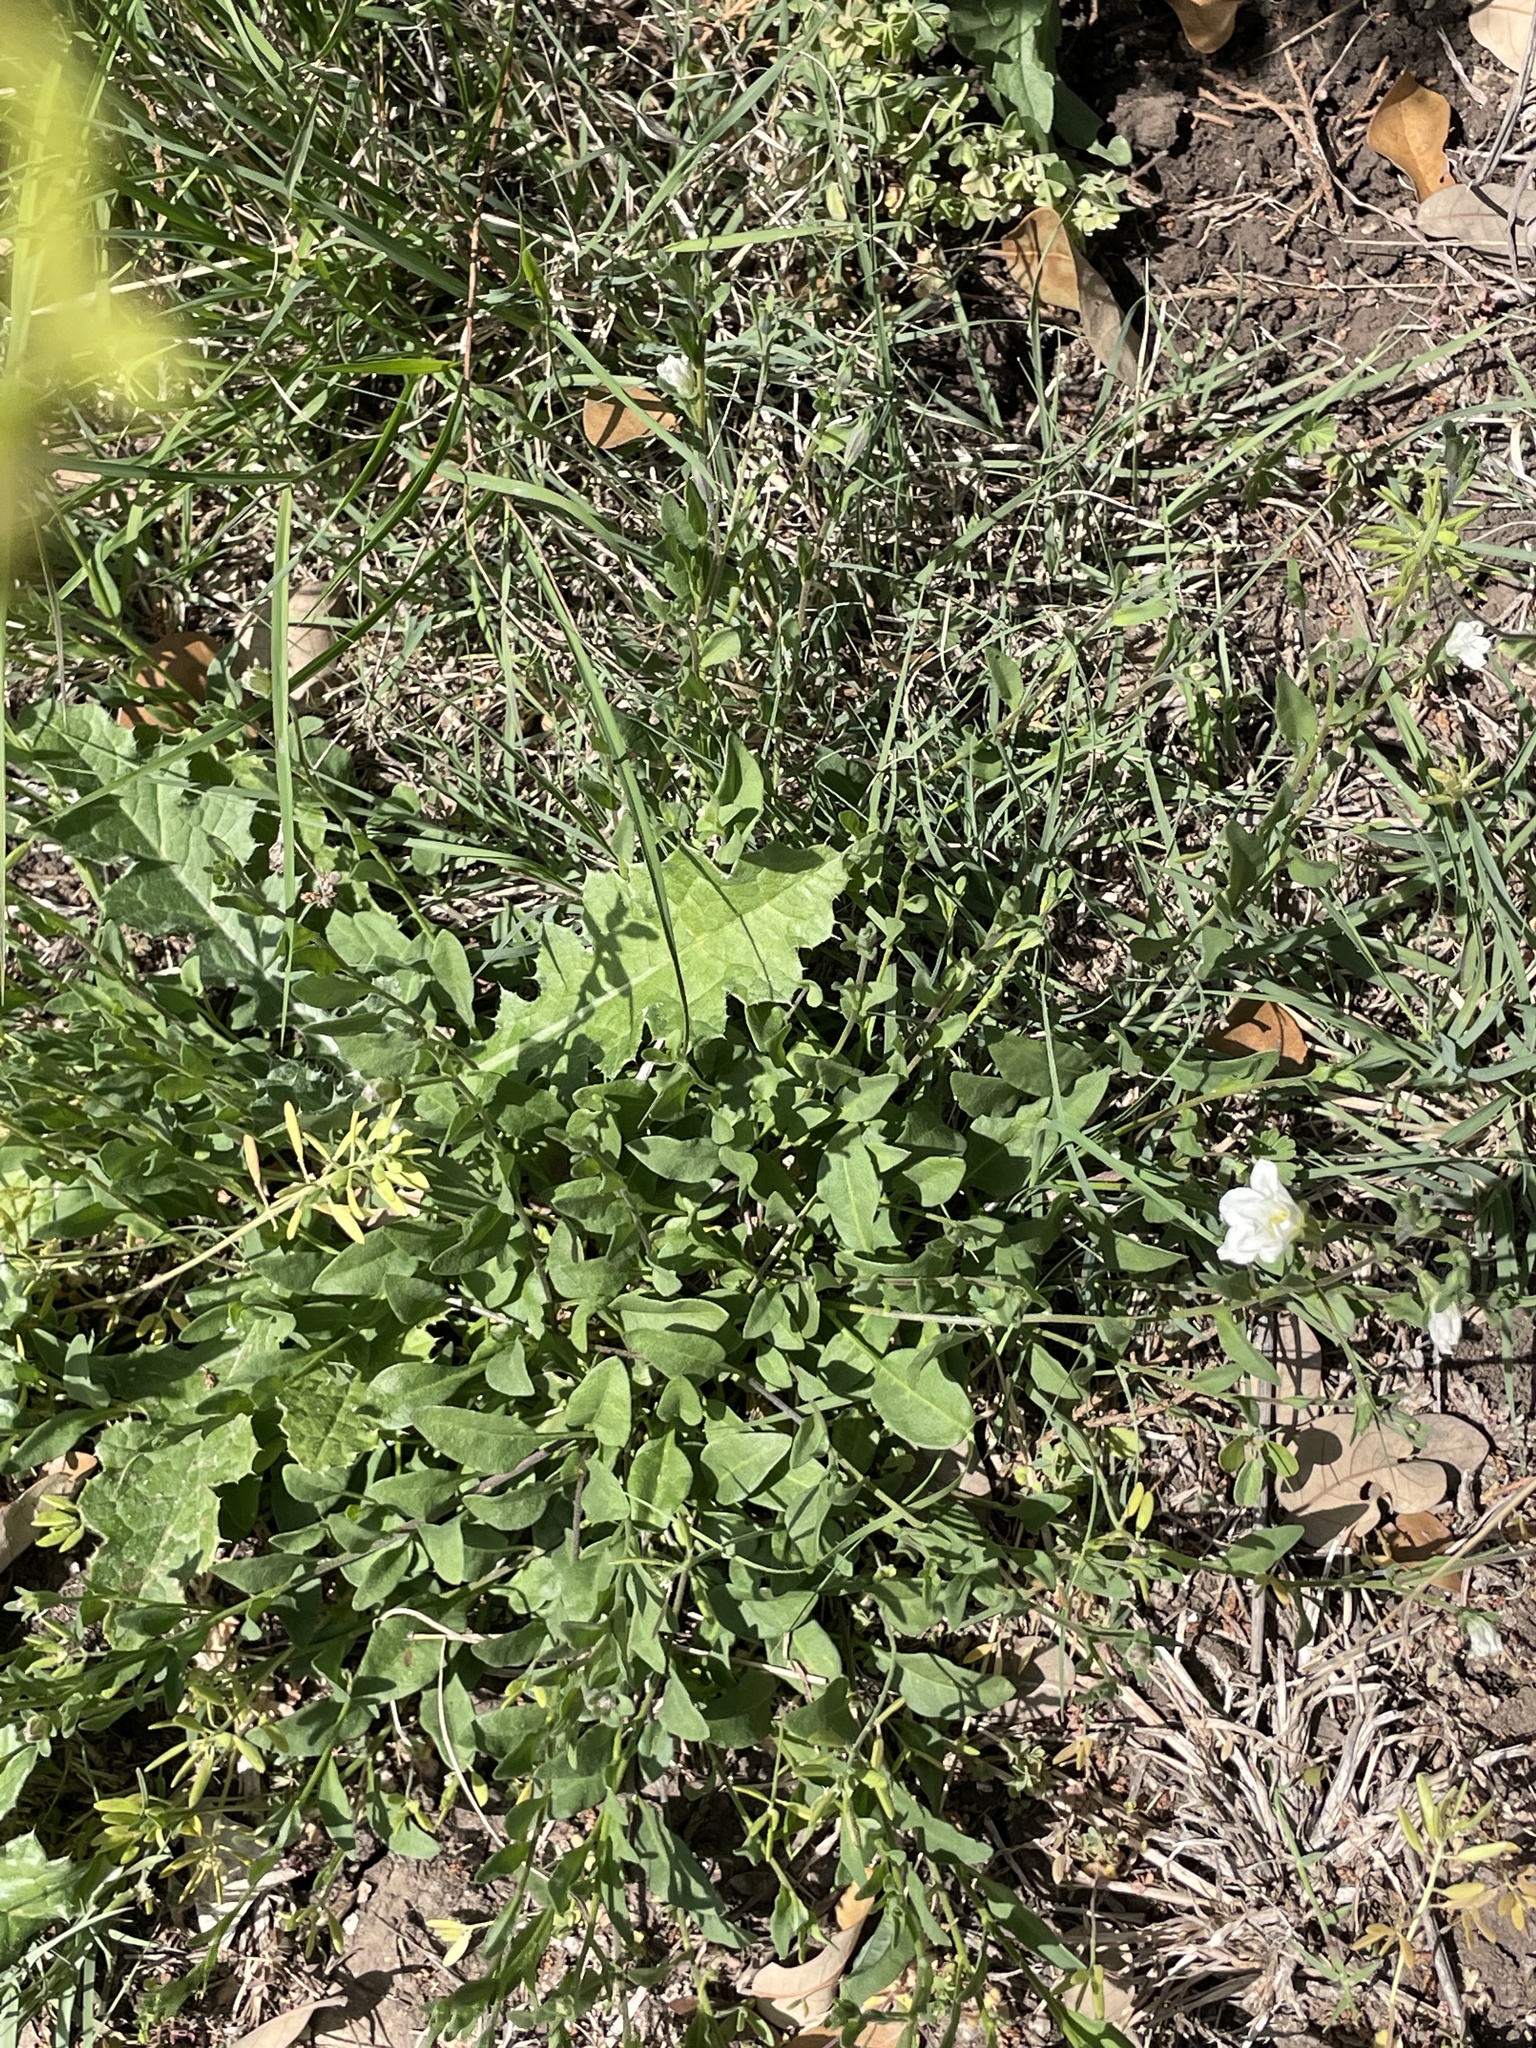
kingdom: Plantae
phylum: Tracheophyta
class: Magnoliopsida
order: Solanales
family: Solanaceae
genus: Salpiglossis
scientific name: Salpiglossis erecta
